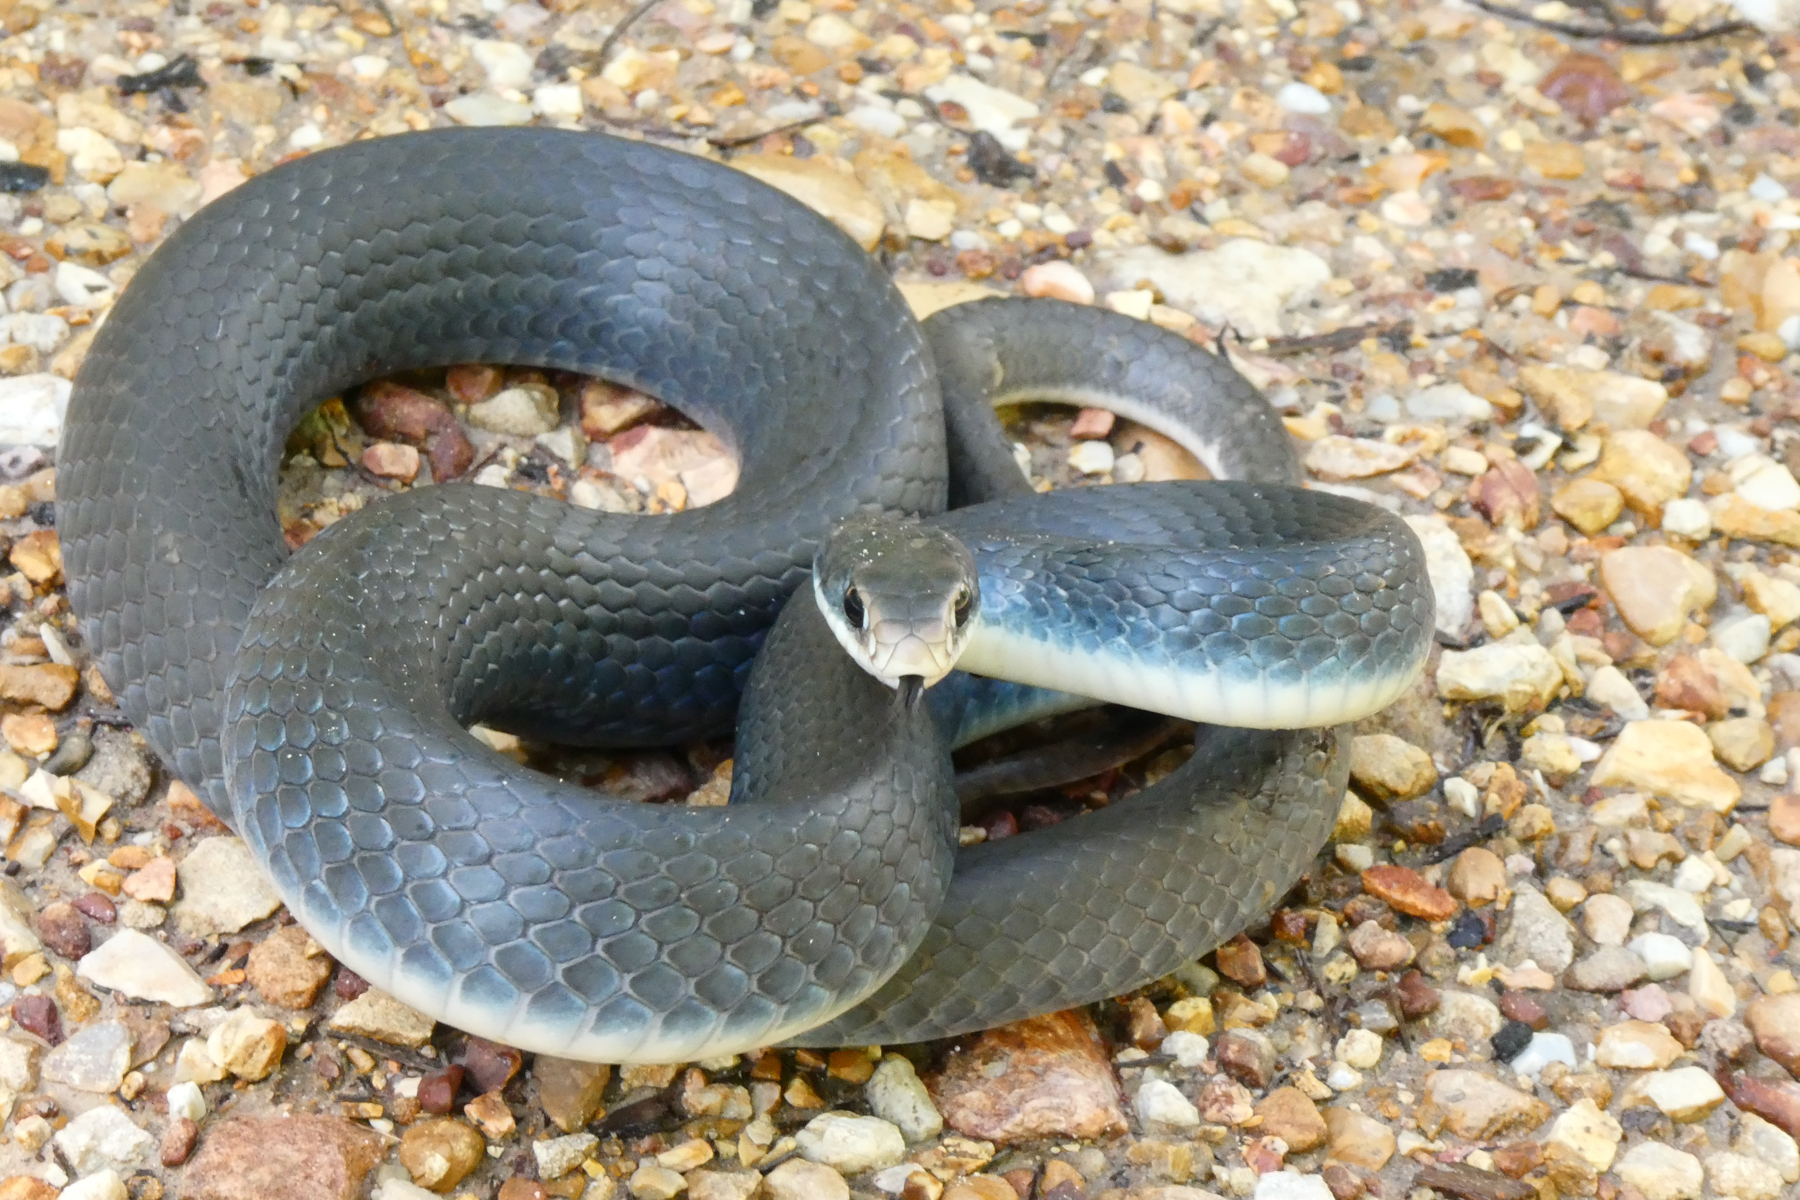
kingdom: Animalia
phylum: Chordata
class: Squamata
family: Colubridae
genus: Coluber
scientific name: Coluber constrictor
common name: Eastern racer
